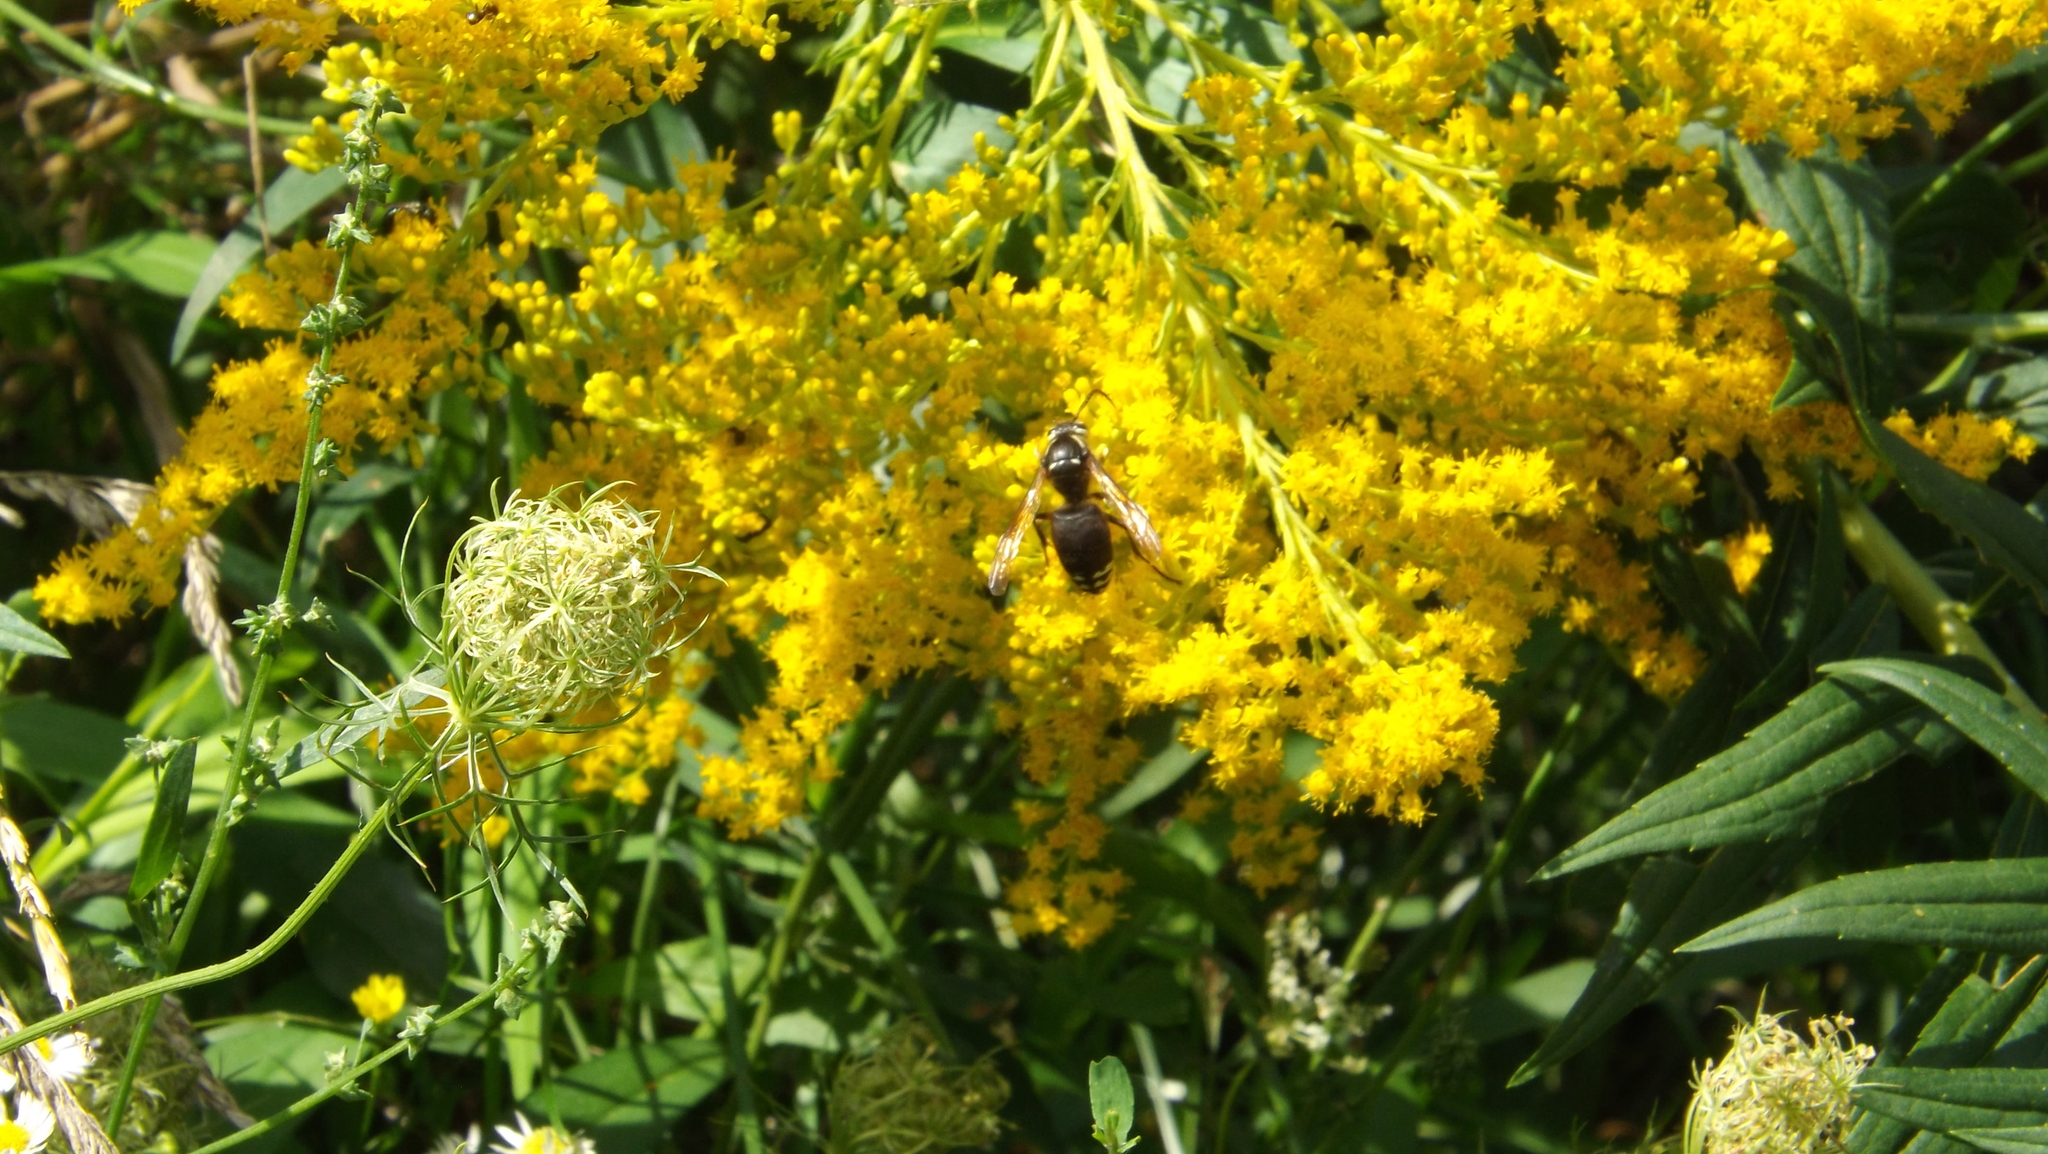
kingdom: Animalia
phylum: Arthropoda
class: Insecta
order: Hymenoptera
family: Vespidae
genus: Dolichovespula
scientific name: Dolichovespula maculata
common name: Bald-faced hornet
